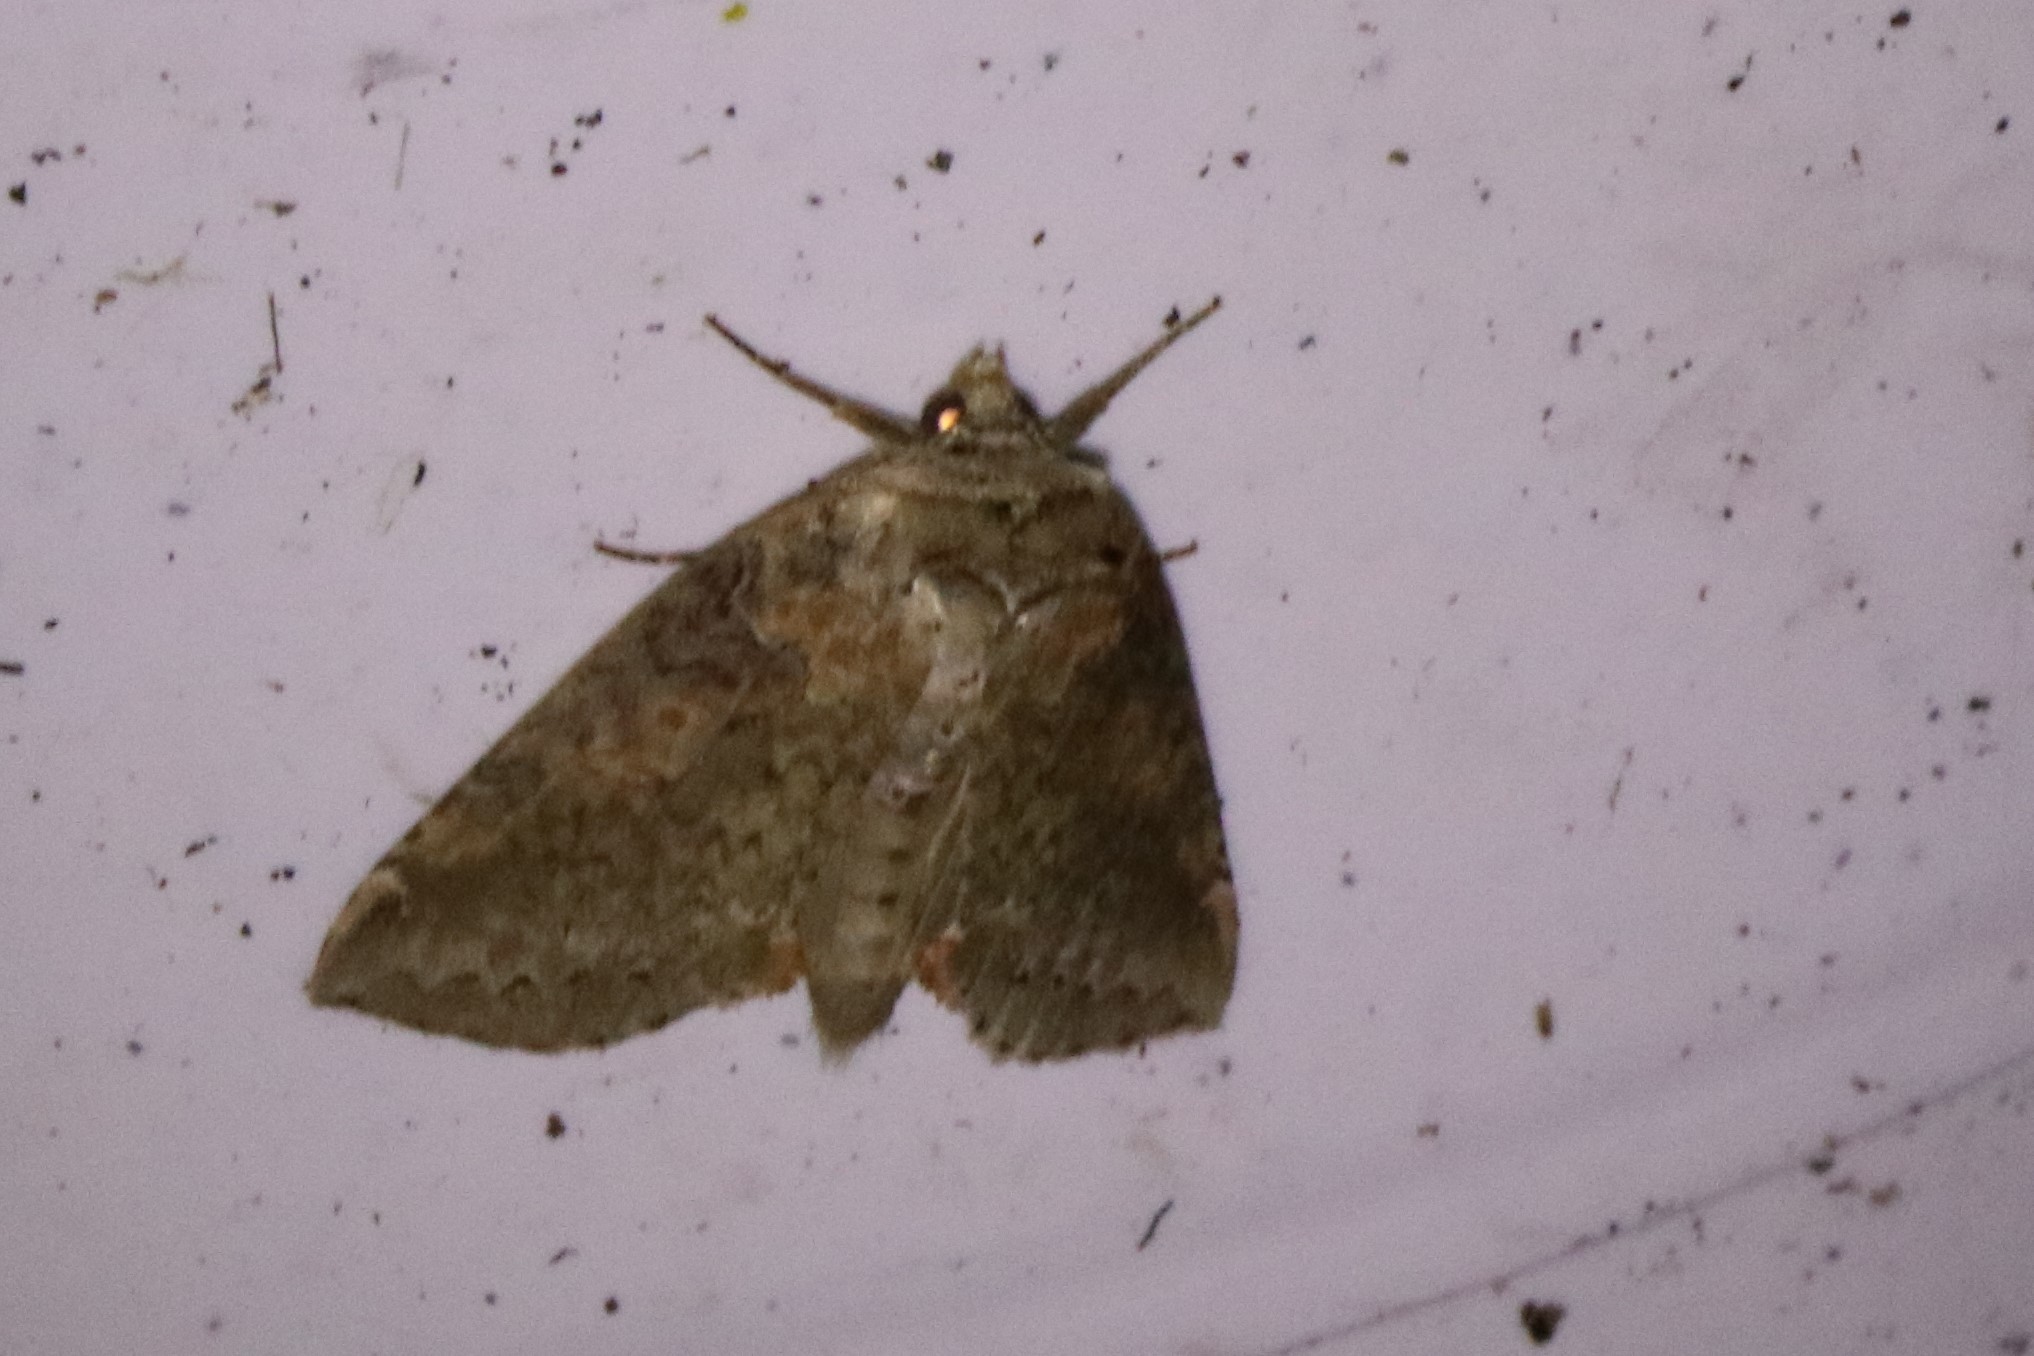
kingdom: Animalia
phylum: Arthropoda
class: Insecta
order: Lepidoptera
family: Drepanidae
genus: Pseudothyatira
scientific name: Pseudothyatira cymatophoroides
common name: Tufted thyatirid moth
